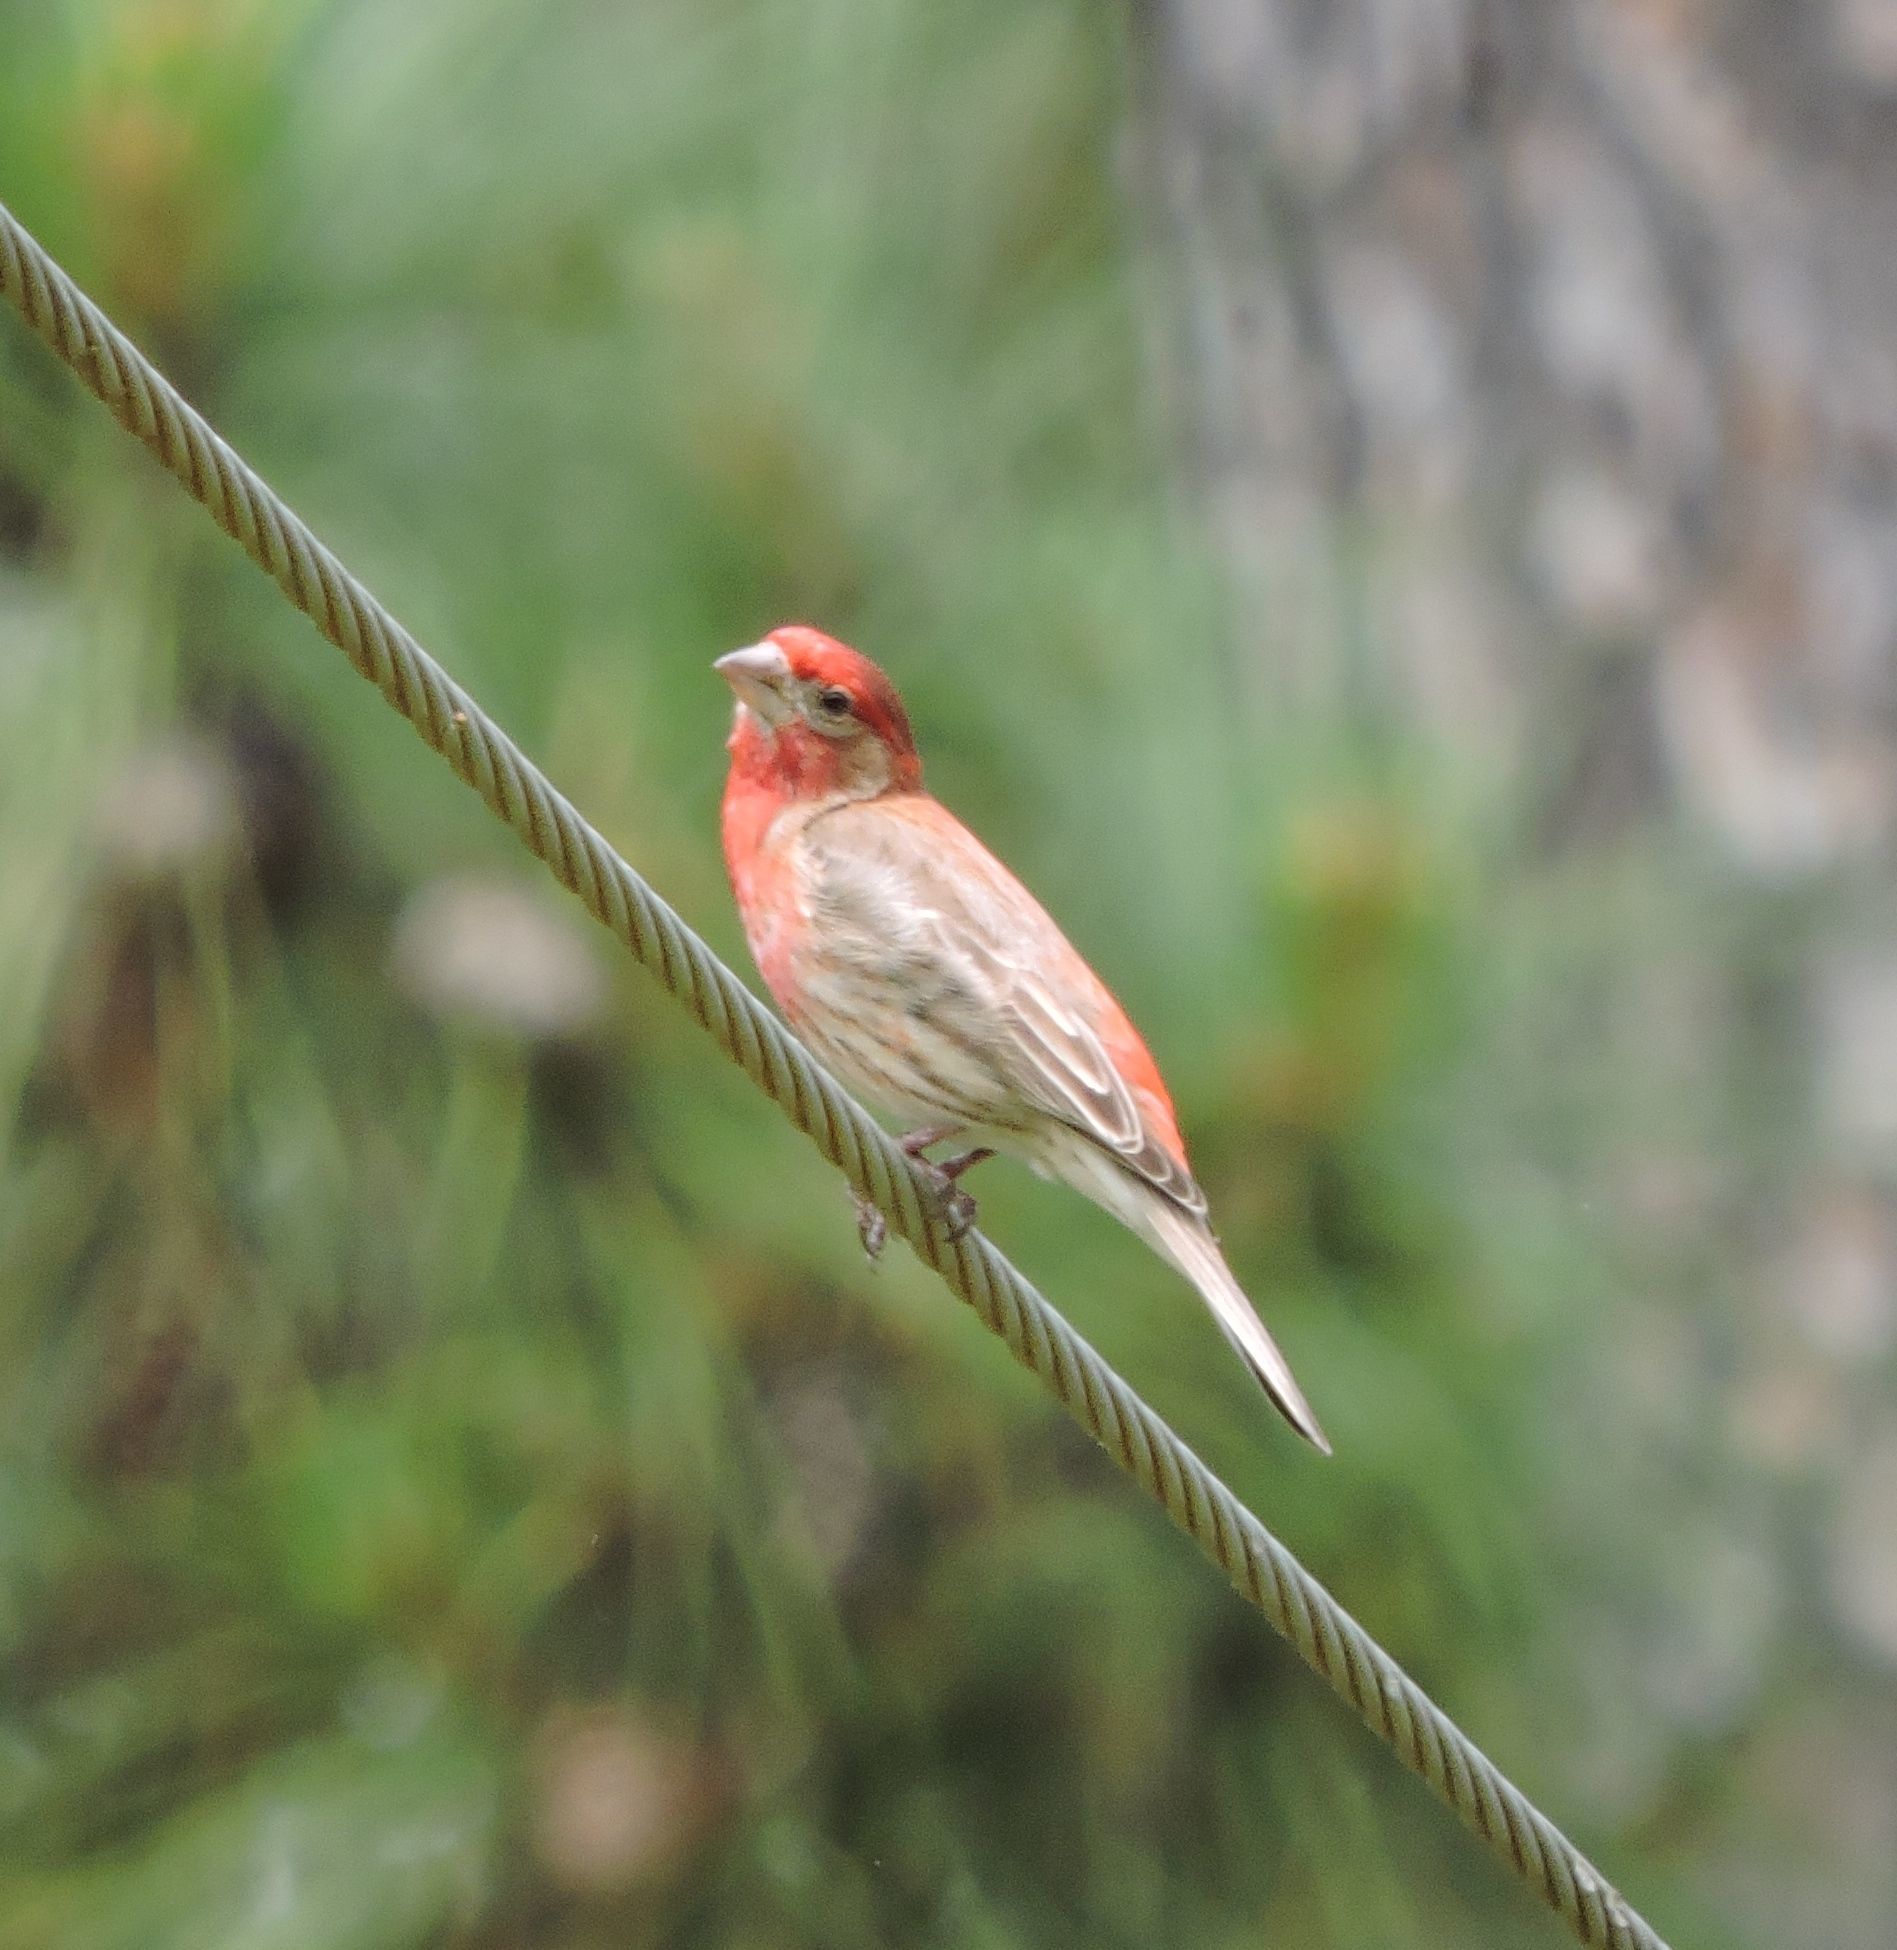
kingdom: Animalia
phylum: Chordata
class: Aves
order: Passeriformes
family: Fringillidae
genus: Haemorhous
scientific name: Haemorhous mexicanus
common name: House finch
